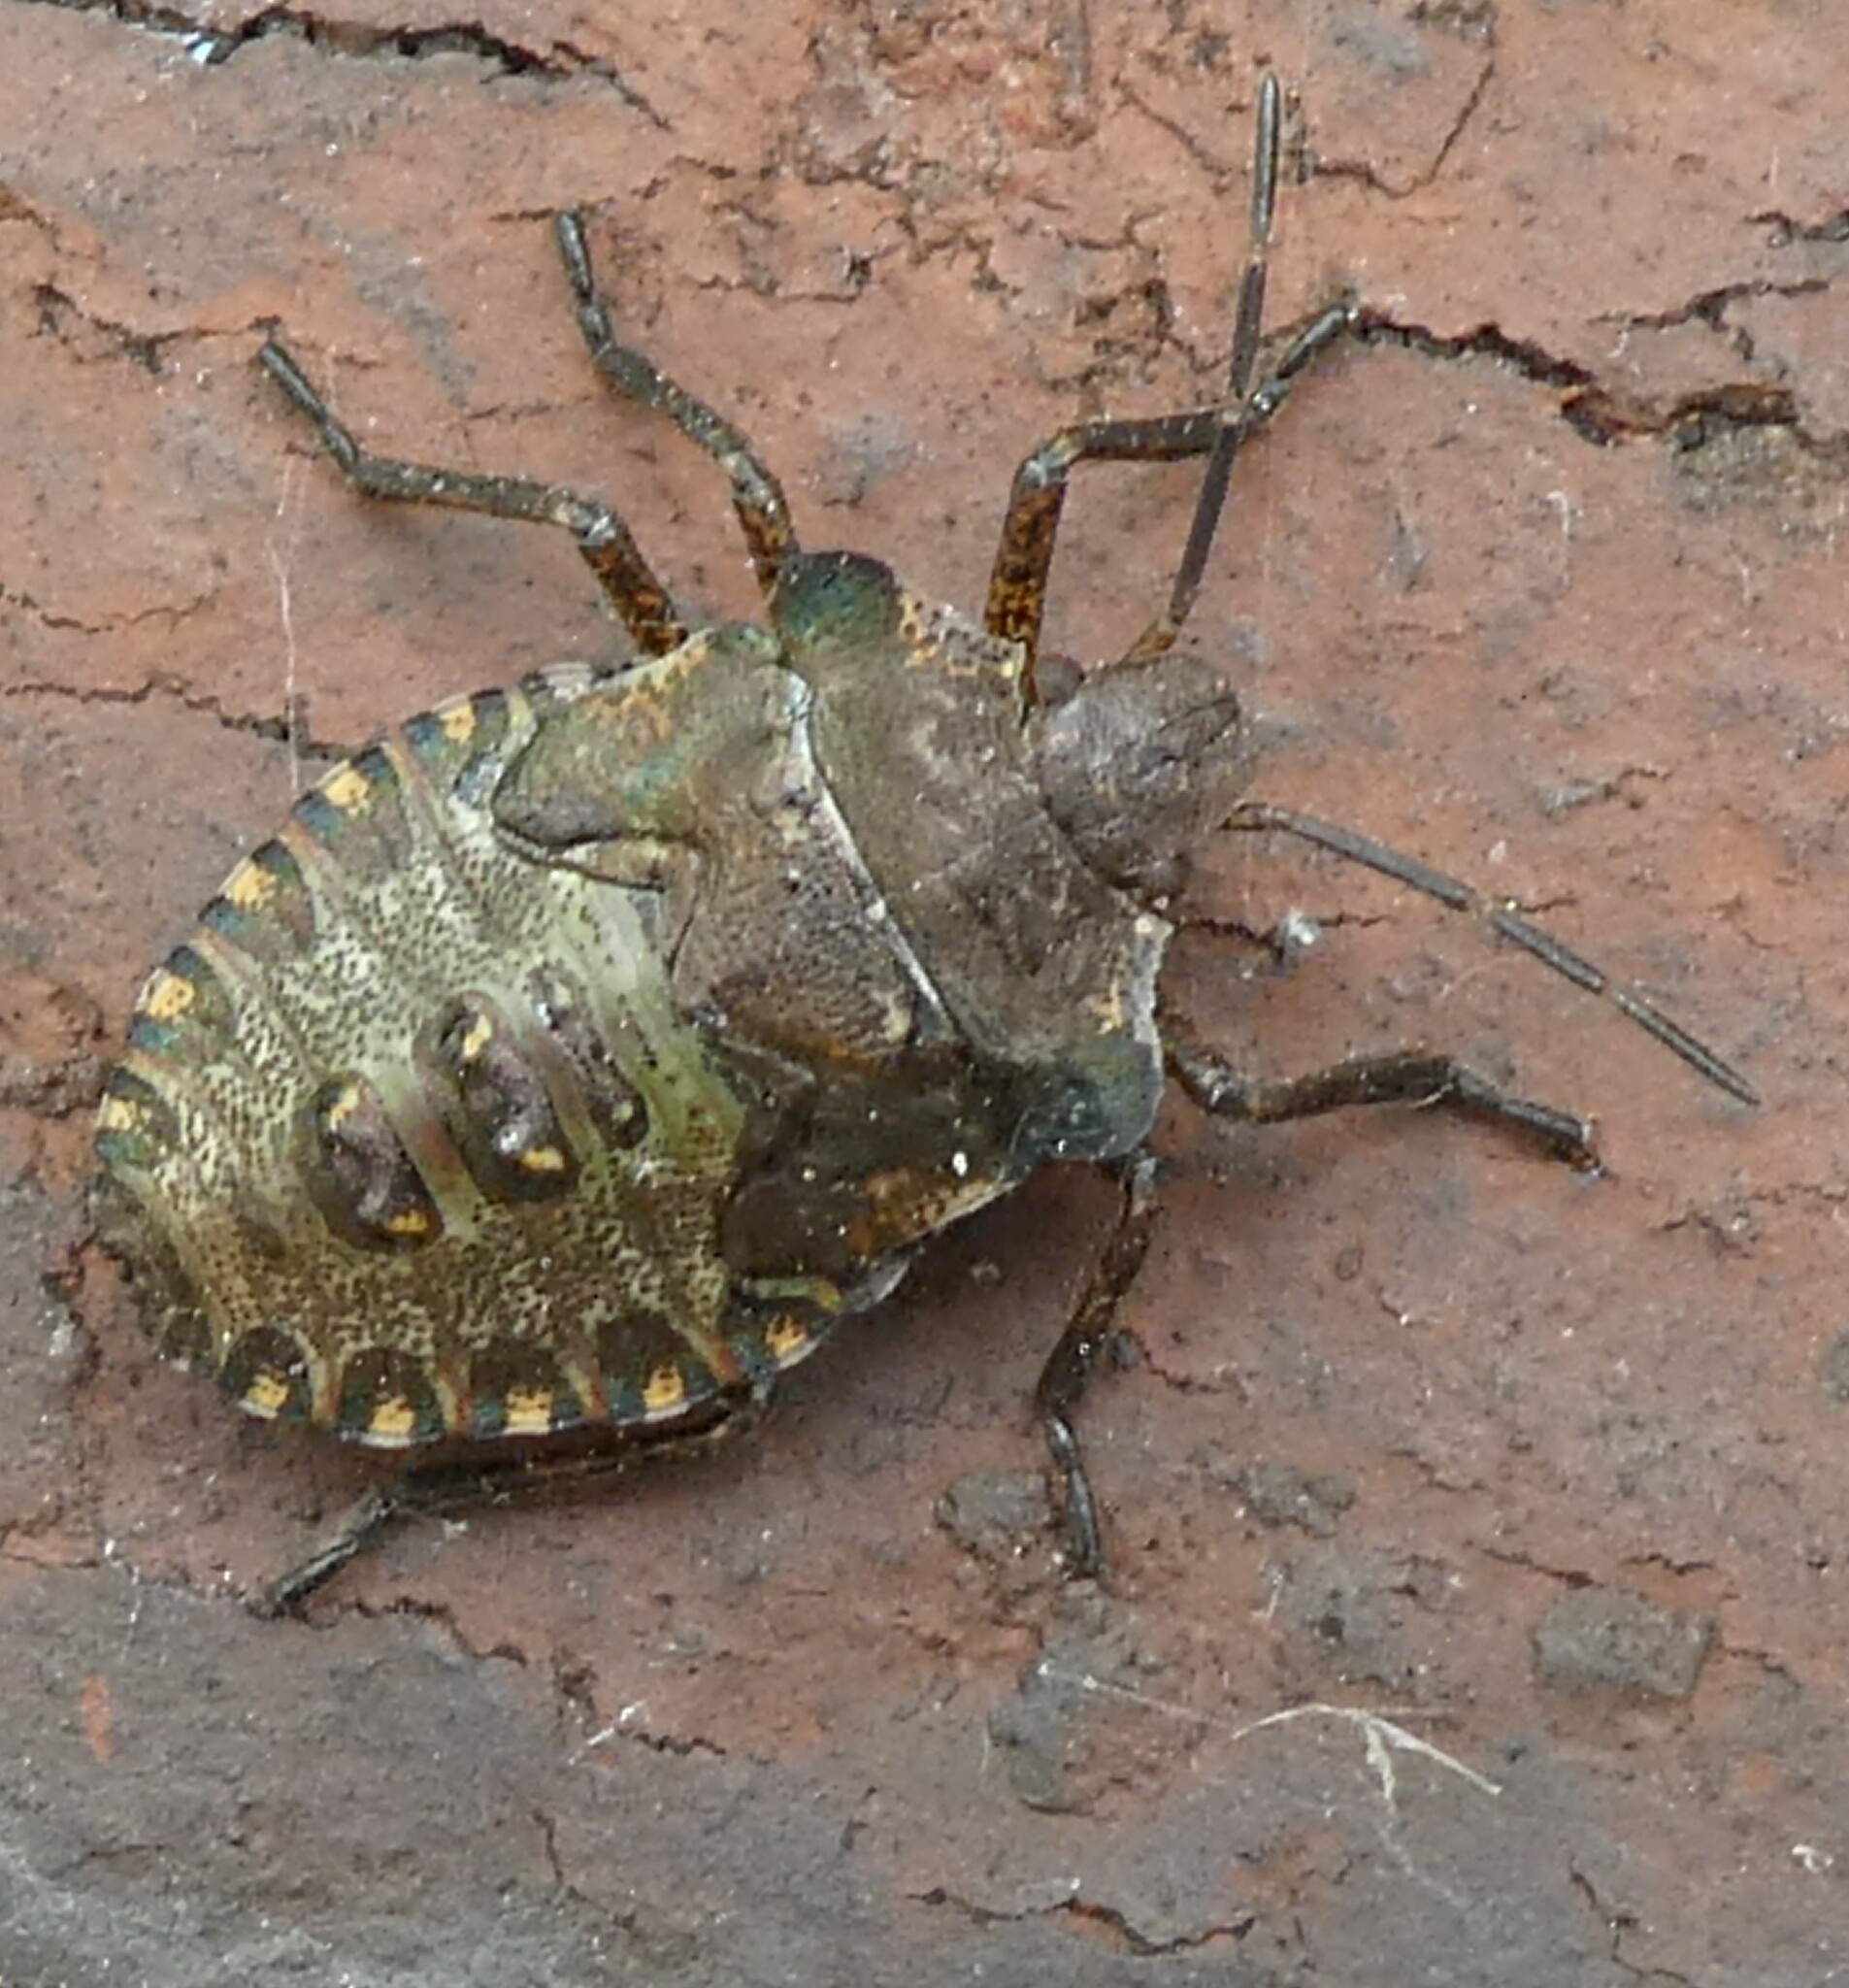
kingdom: Animalia
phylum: Arthropoda
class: Insecta
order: Hemiptera
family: Pentatomidae
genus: Pentatoma
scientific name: Pentatoma rufipes
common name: Forest bug
